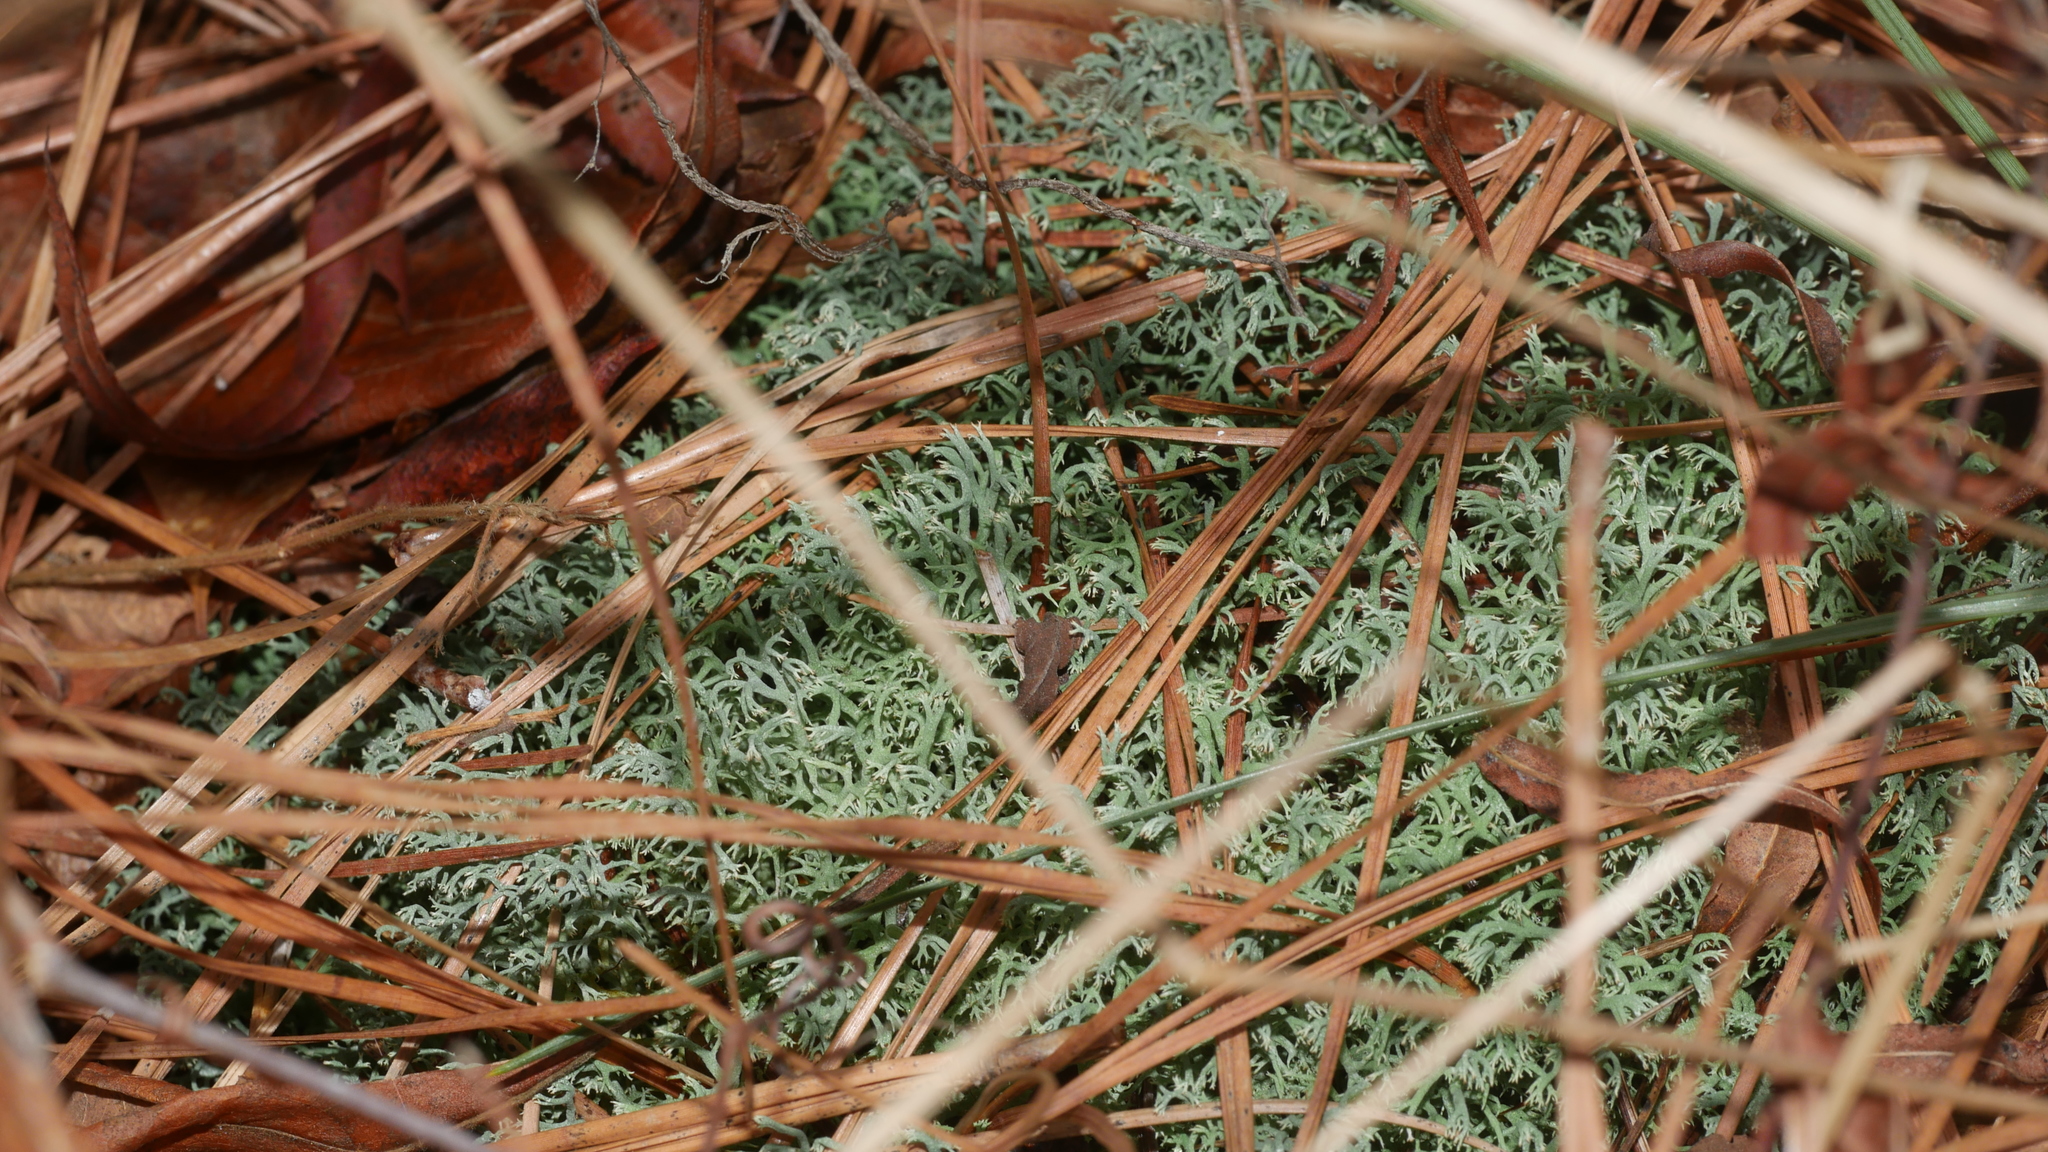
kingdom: Fungi
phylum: Ascomycota
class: Lecanoromycetes
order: Lecanorales
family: Cladoniaceae
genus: Cladonia
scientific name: Cladonia subtenuis
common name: Dixie reindeer lichen
